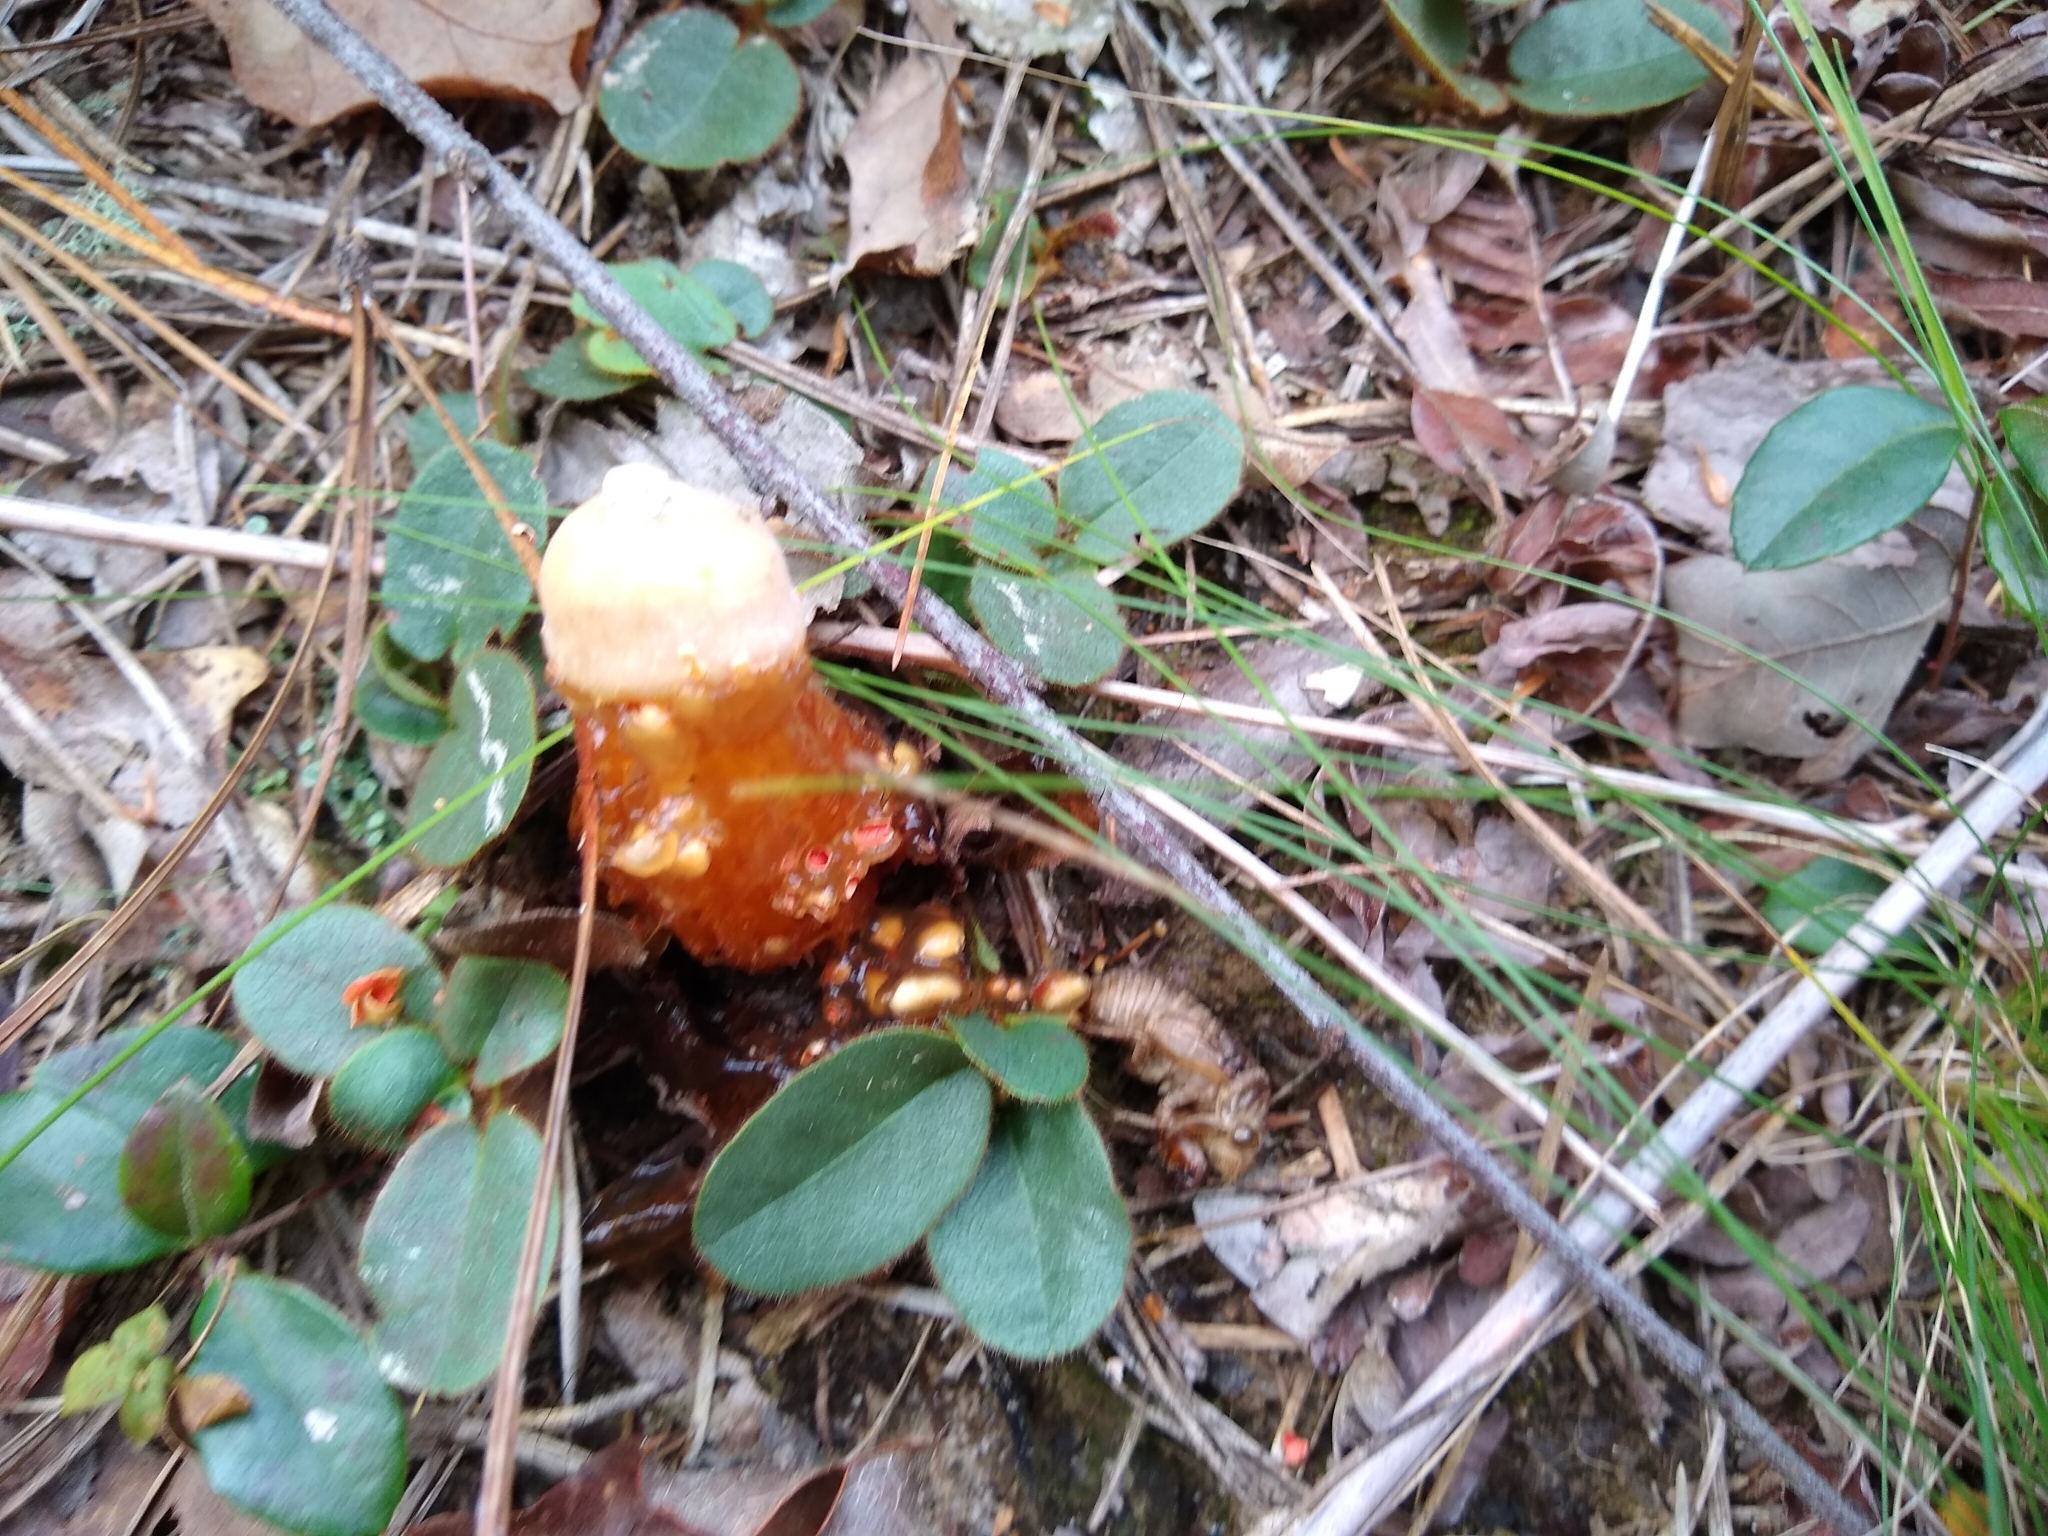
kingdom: Fungi
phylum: Basidiomycota
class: Agaricomycetes
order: Boletales
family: Calostomataceae
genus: Calostoma
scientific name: Calostoma cinnabarinum
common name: Stalked puffball-in-aspic
